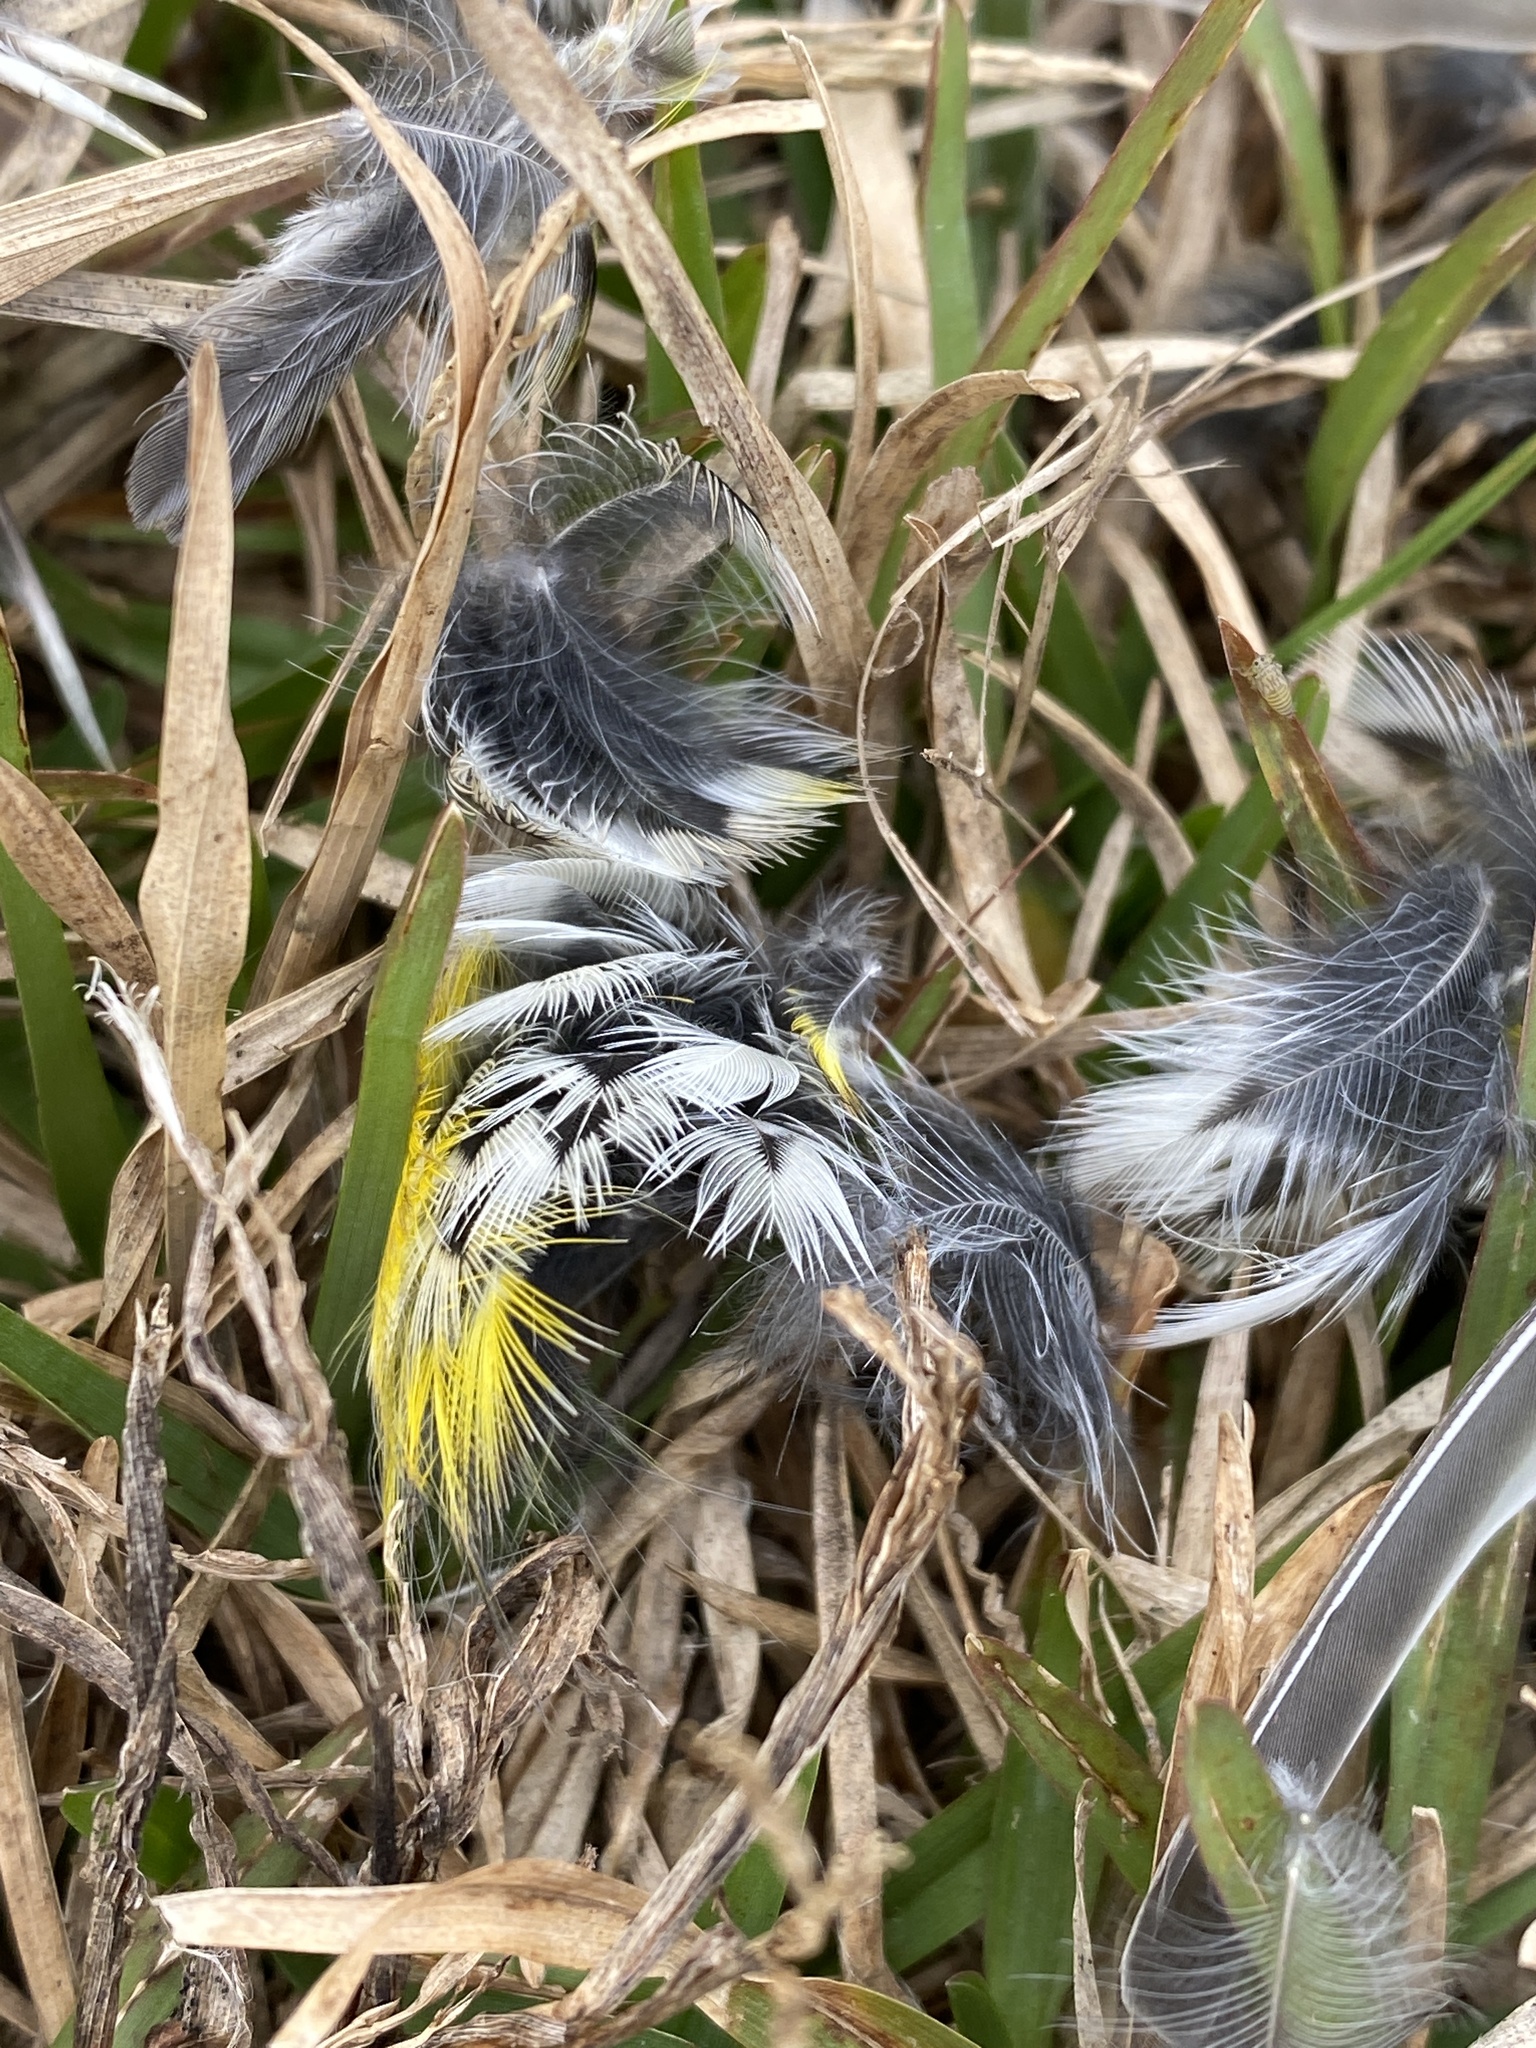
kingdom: Animalia
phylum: Chordata
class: Aves
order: Passeriformes
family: Parulidae
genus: Setophaga
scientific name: Setophaga coronata
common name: Myrtle warbler
